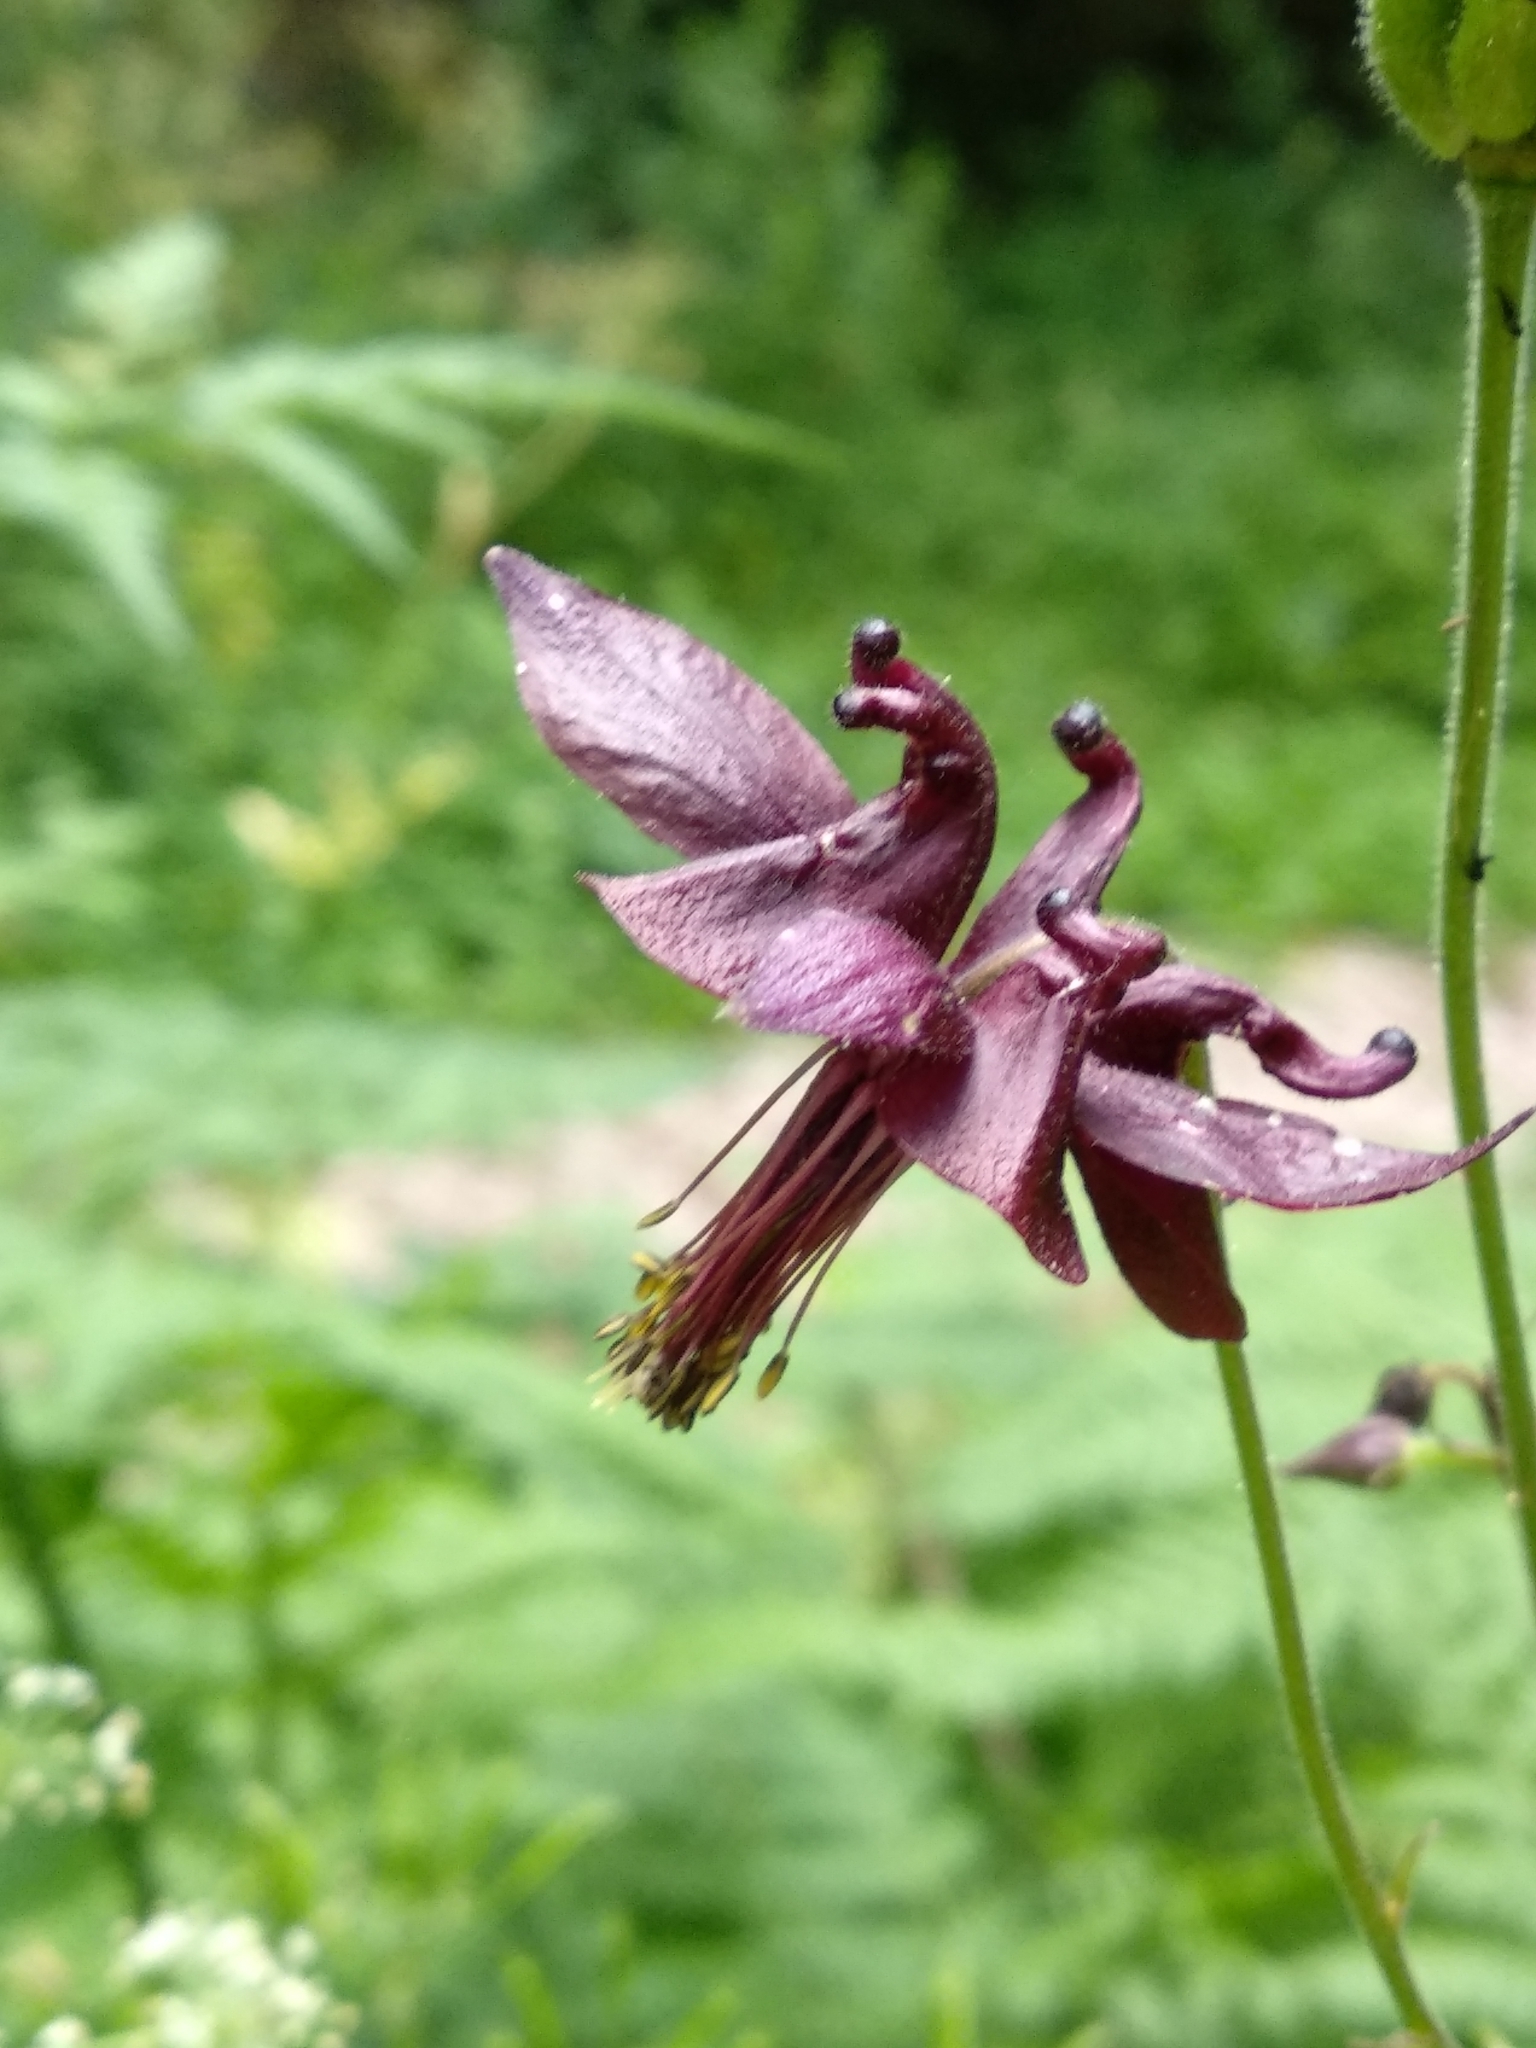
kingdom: Plantae
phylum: Tracheophyta
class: Magnoliopsida
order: Ranunculales
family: Ranunculaceae
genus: Aquilegia
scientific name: Aquilegia atrata
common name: Dark columbine
